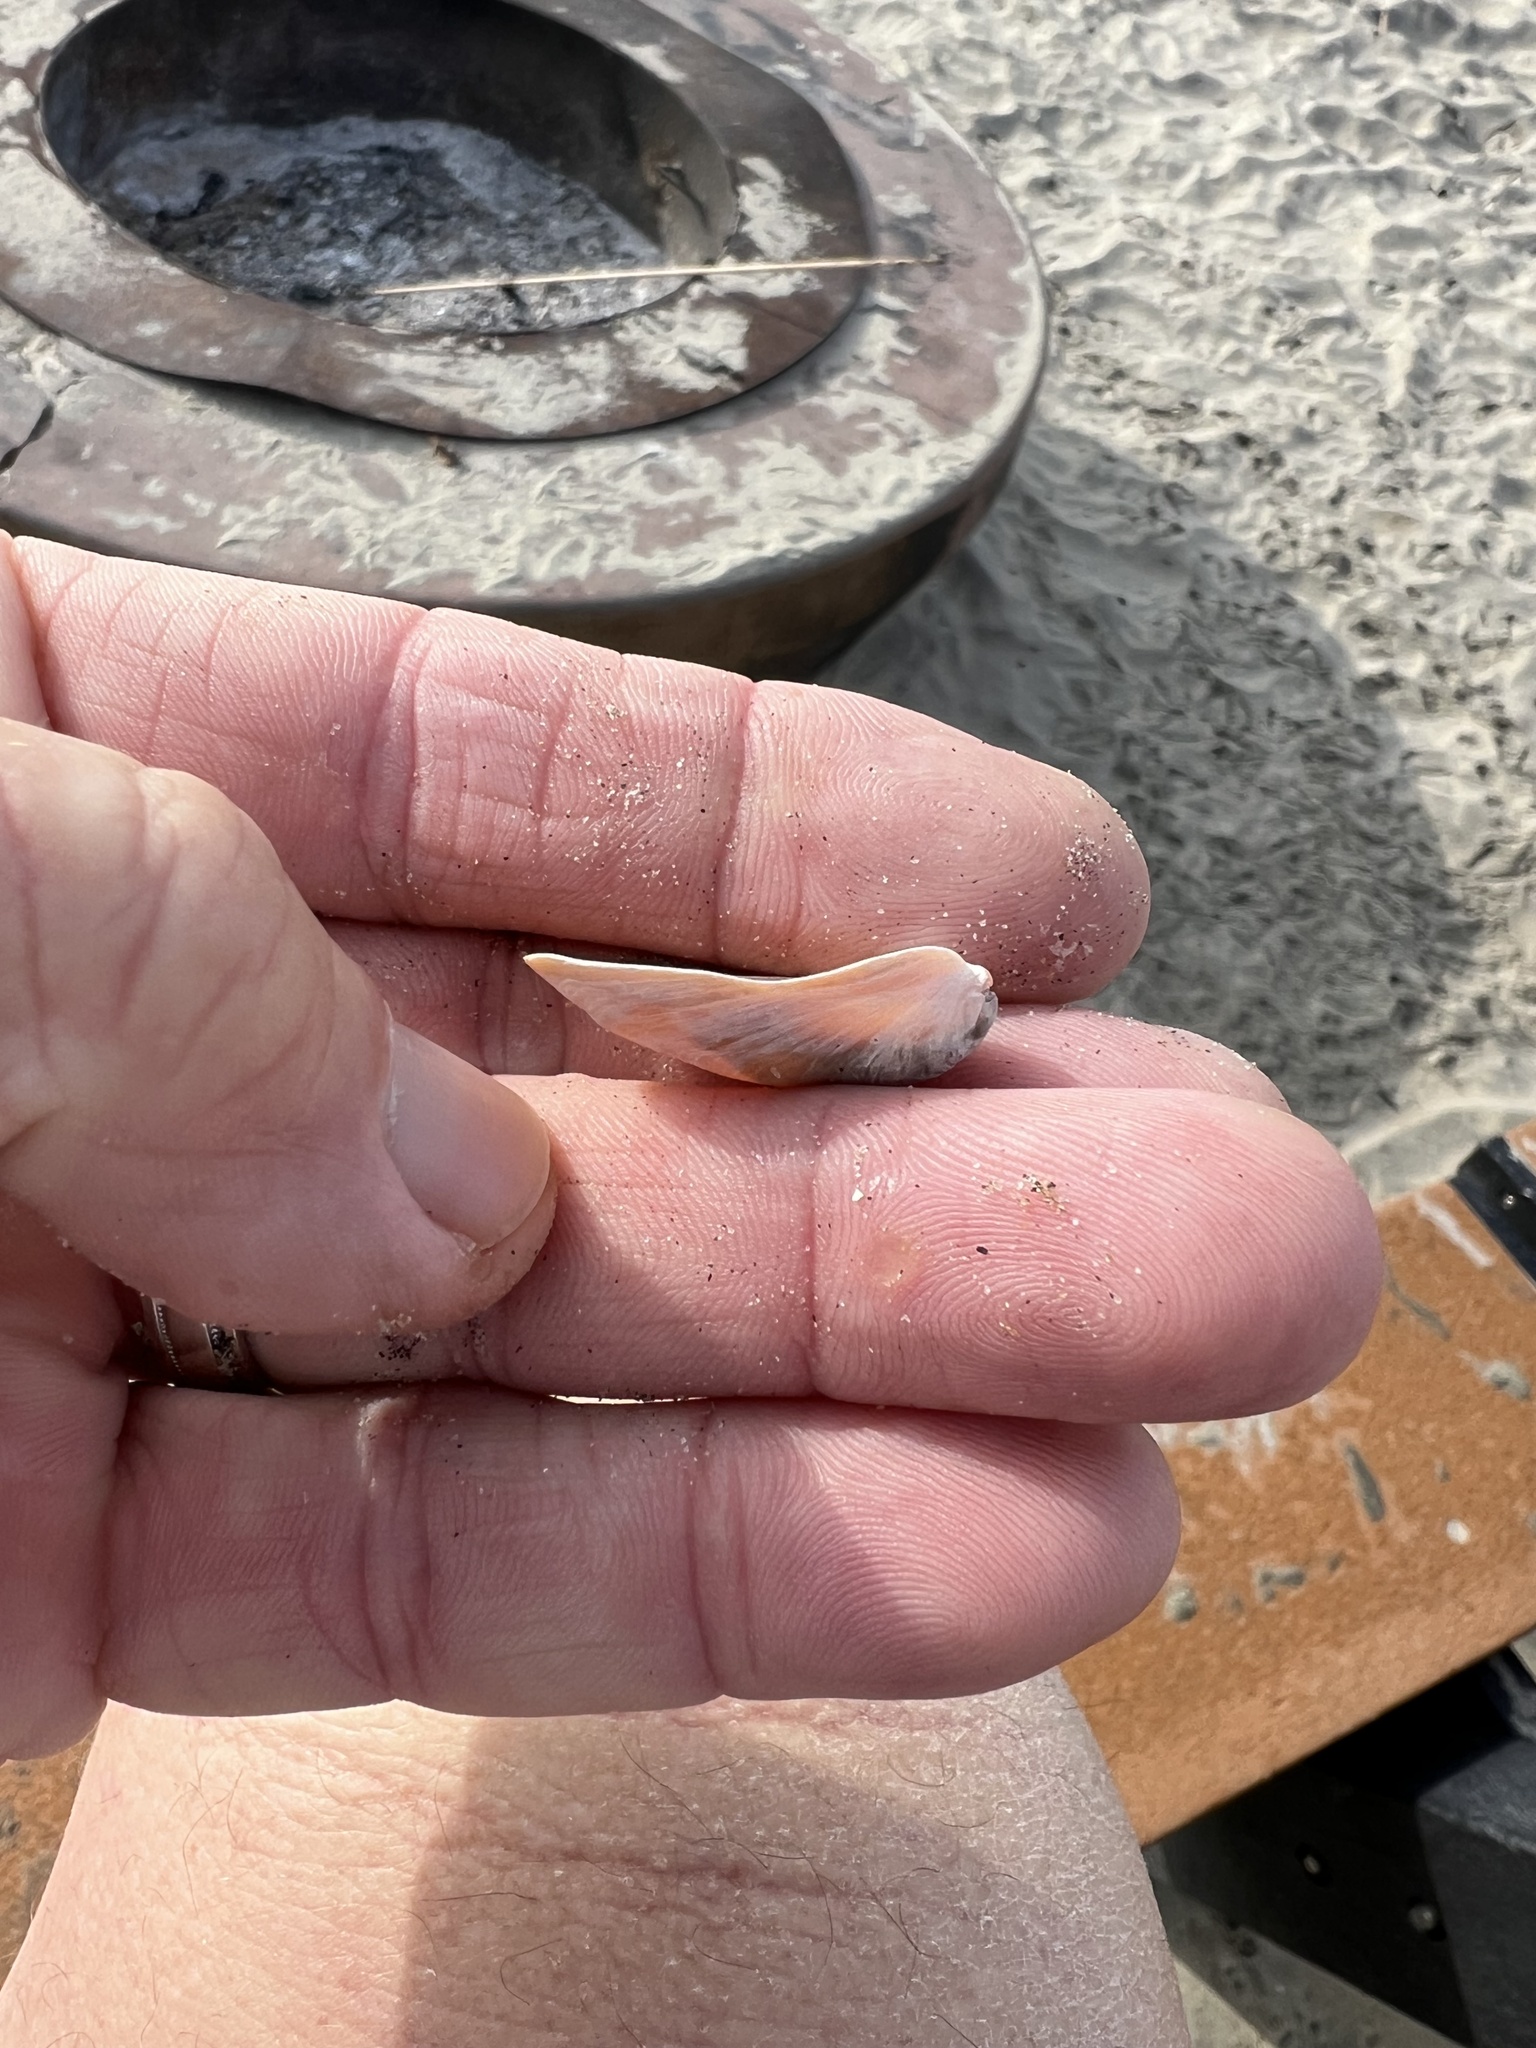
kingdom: Animalia
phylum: Mollusca
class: Gastropoda
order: Littorinimorpha
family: Calyptraeidae
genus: Crepidula
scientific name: Crepidula onyx
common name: Onyx slippersnail
